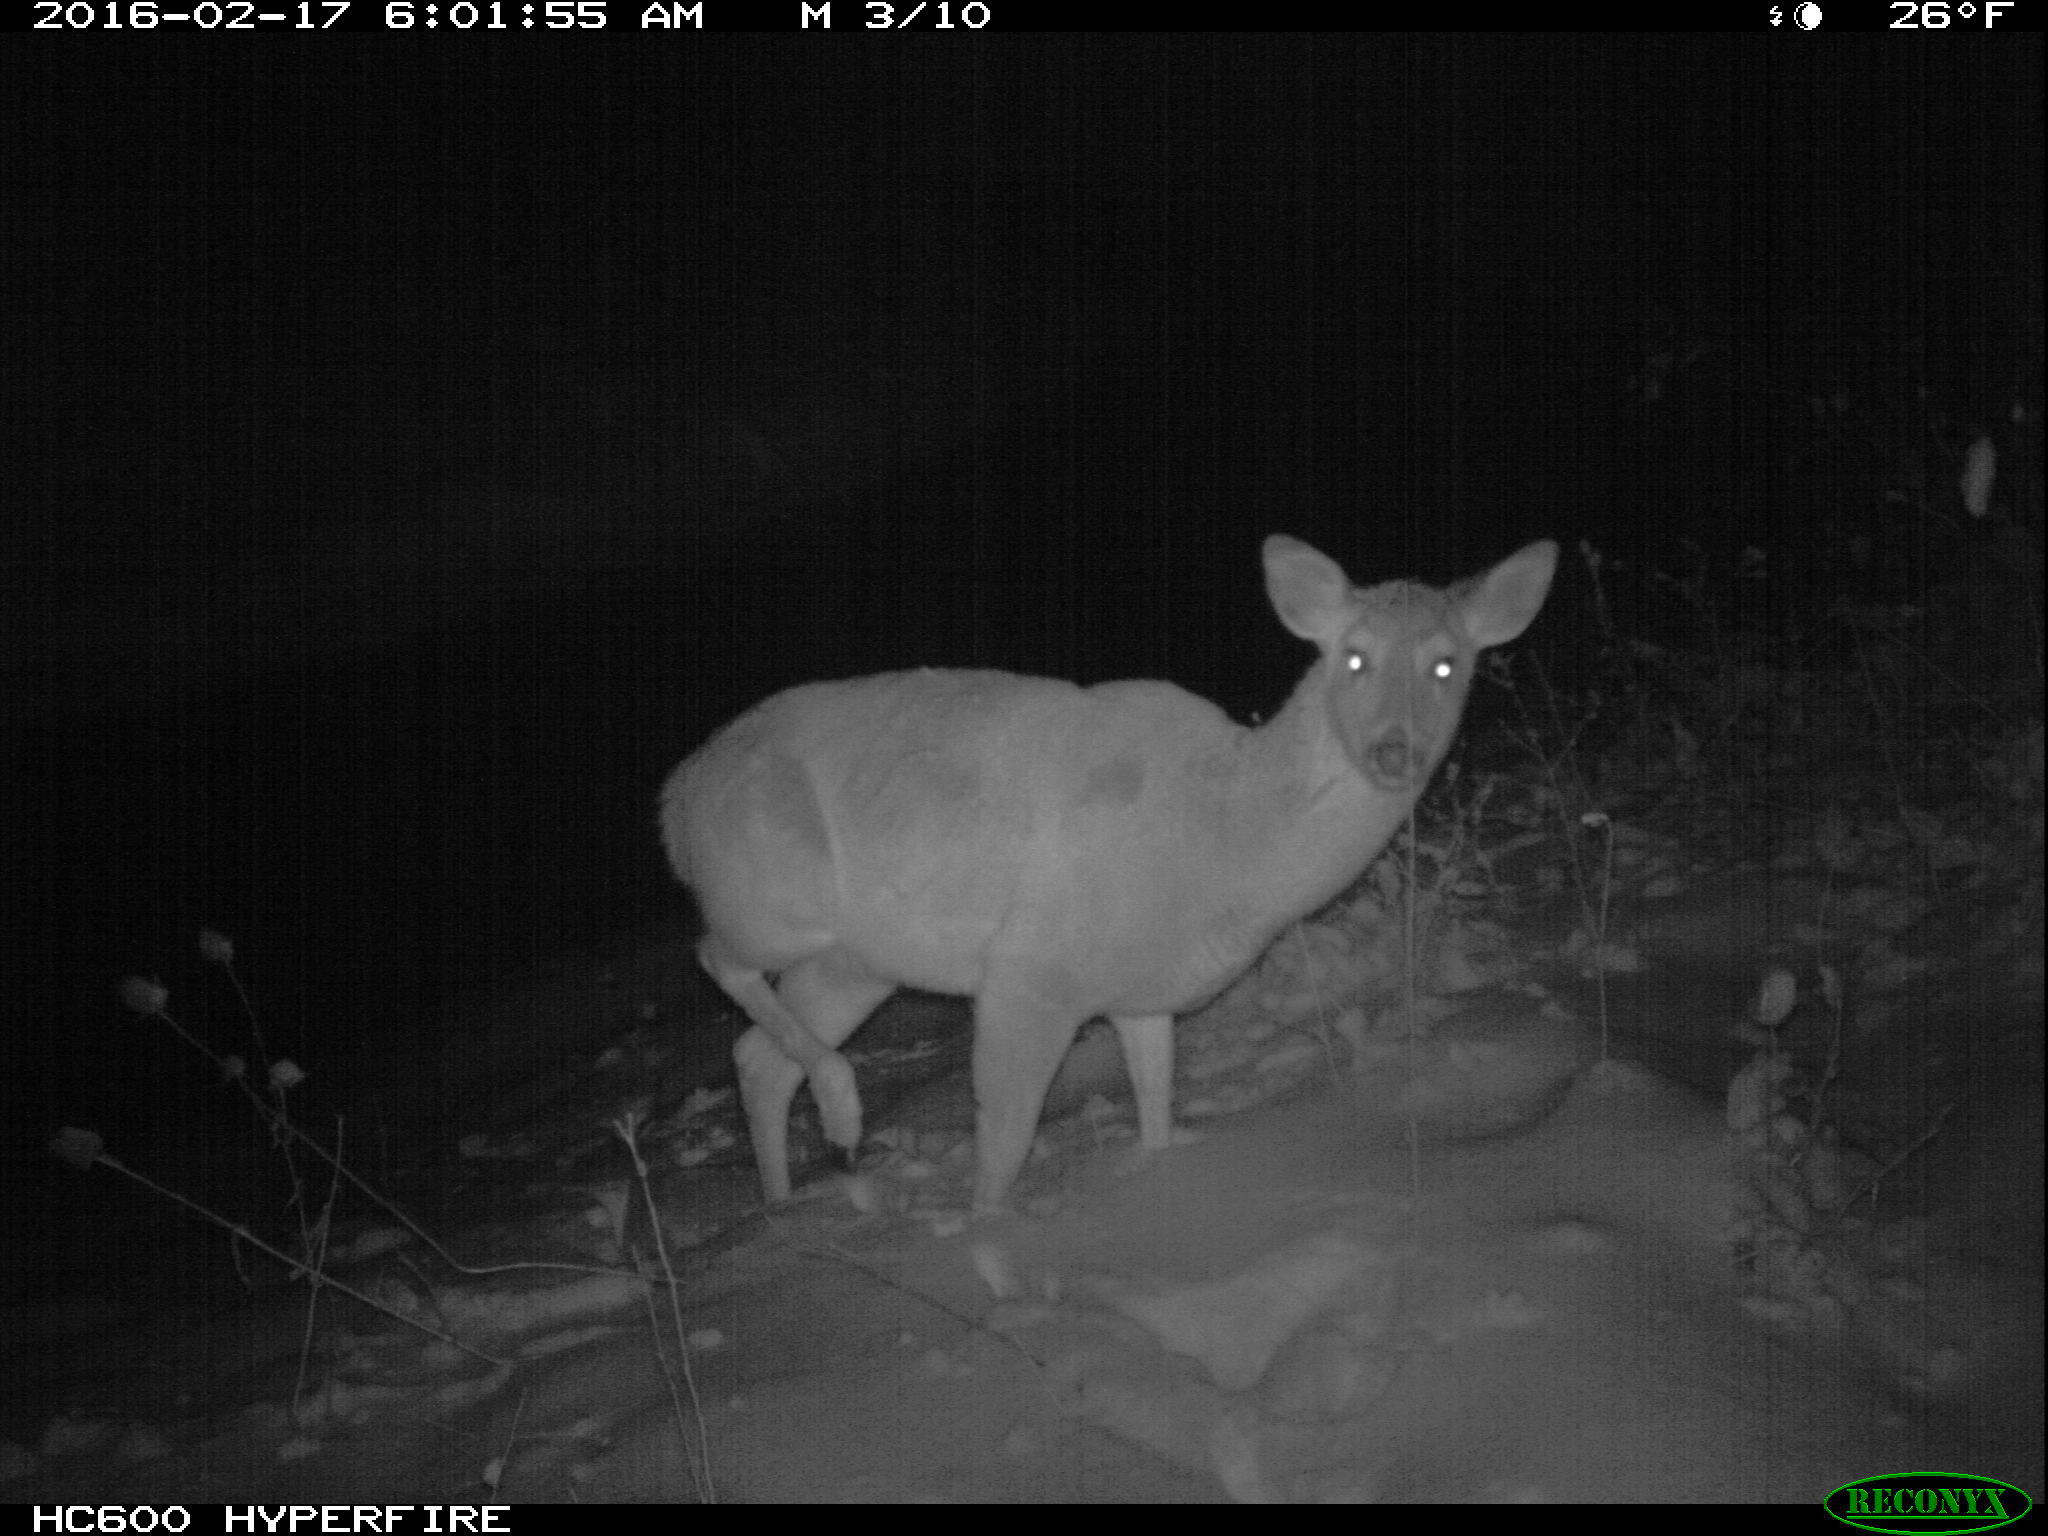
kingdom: Animalia
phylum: Chordata
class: Mammalia
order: Artiodactyla
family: Cervidae
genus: Odocoileus
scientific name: Odocoileus virginianus
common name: White-tailed deer
